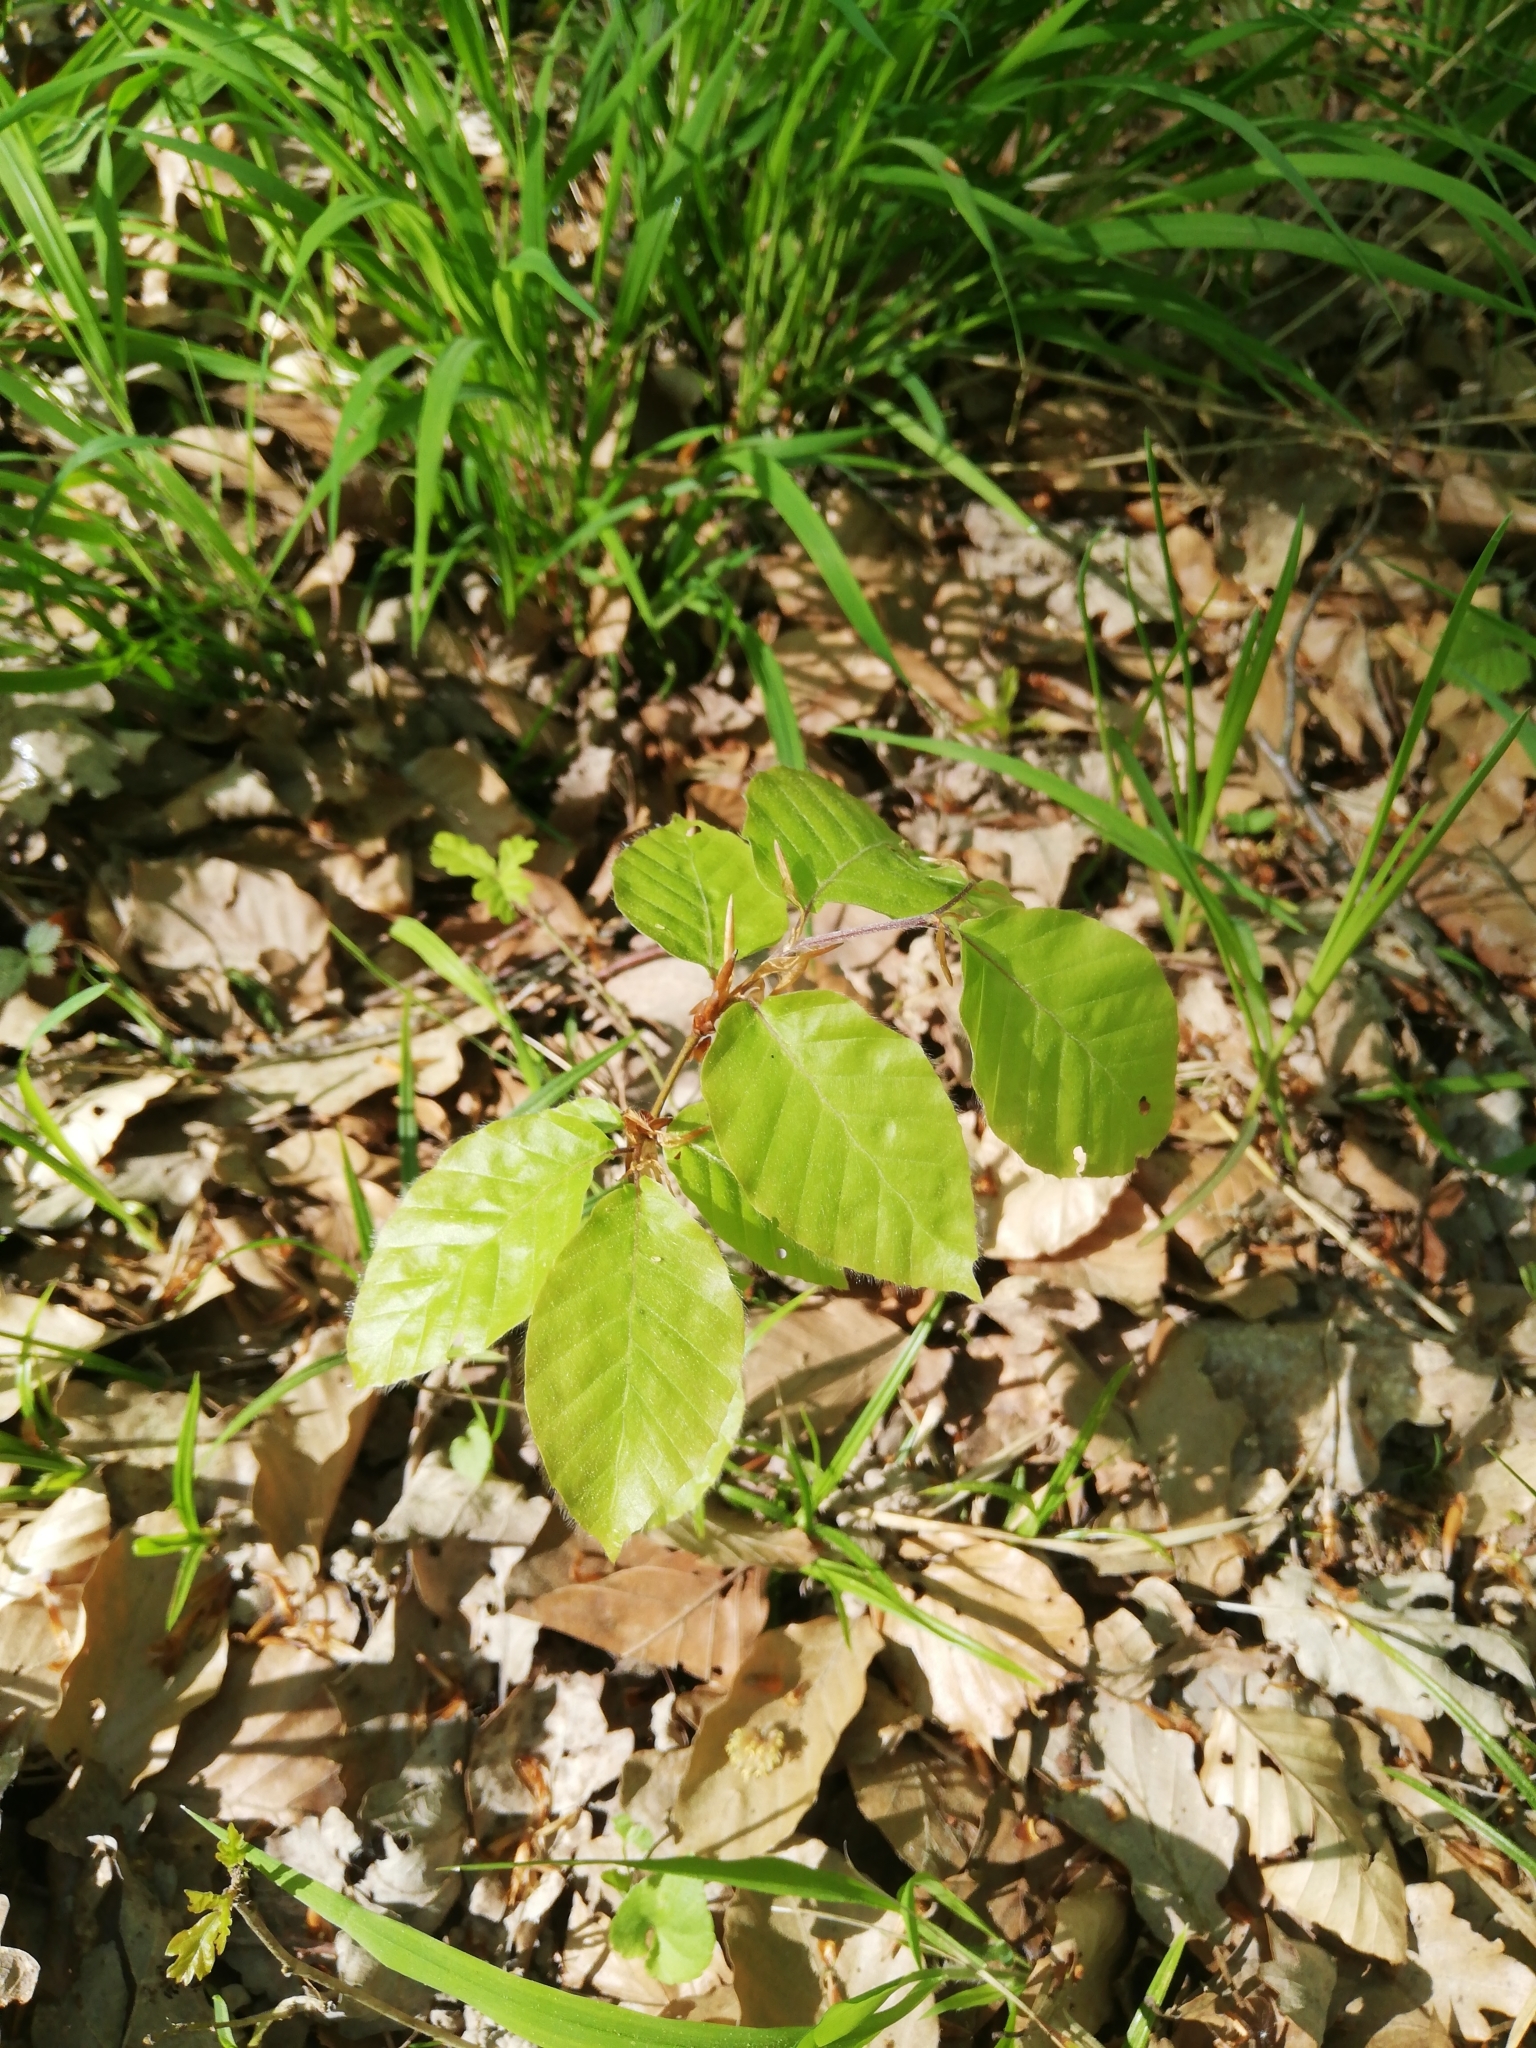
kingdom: Plantae
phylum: Tracheophyta
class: Magnoliopsida
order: Fagales
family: Fagaceae
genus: Fagus
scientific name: Fagus sylvatica
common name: Beech
